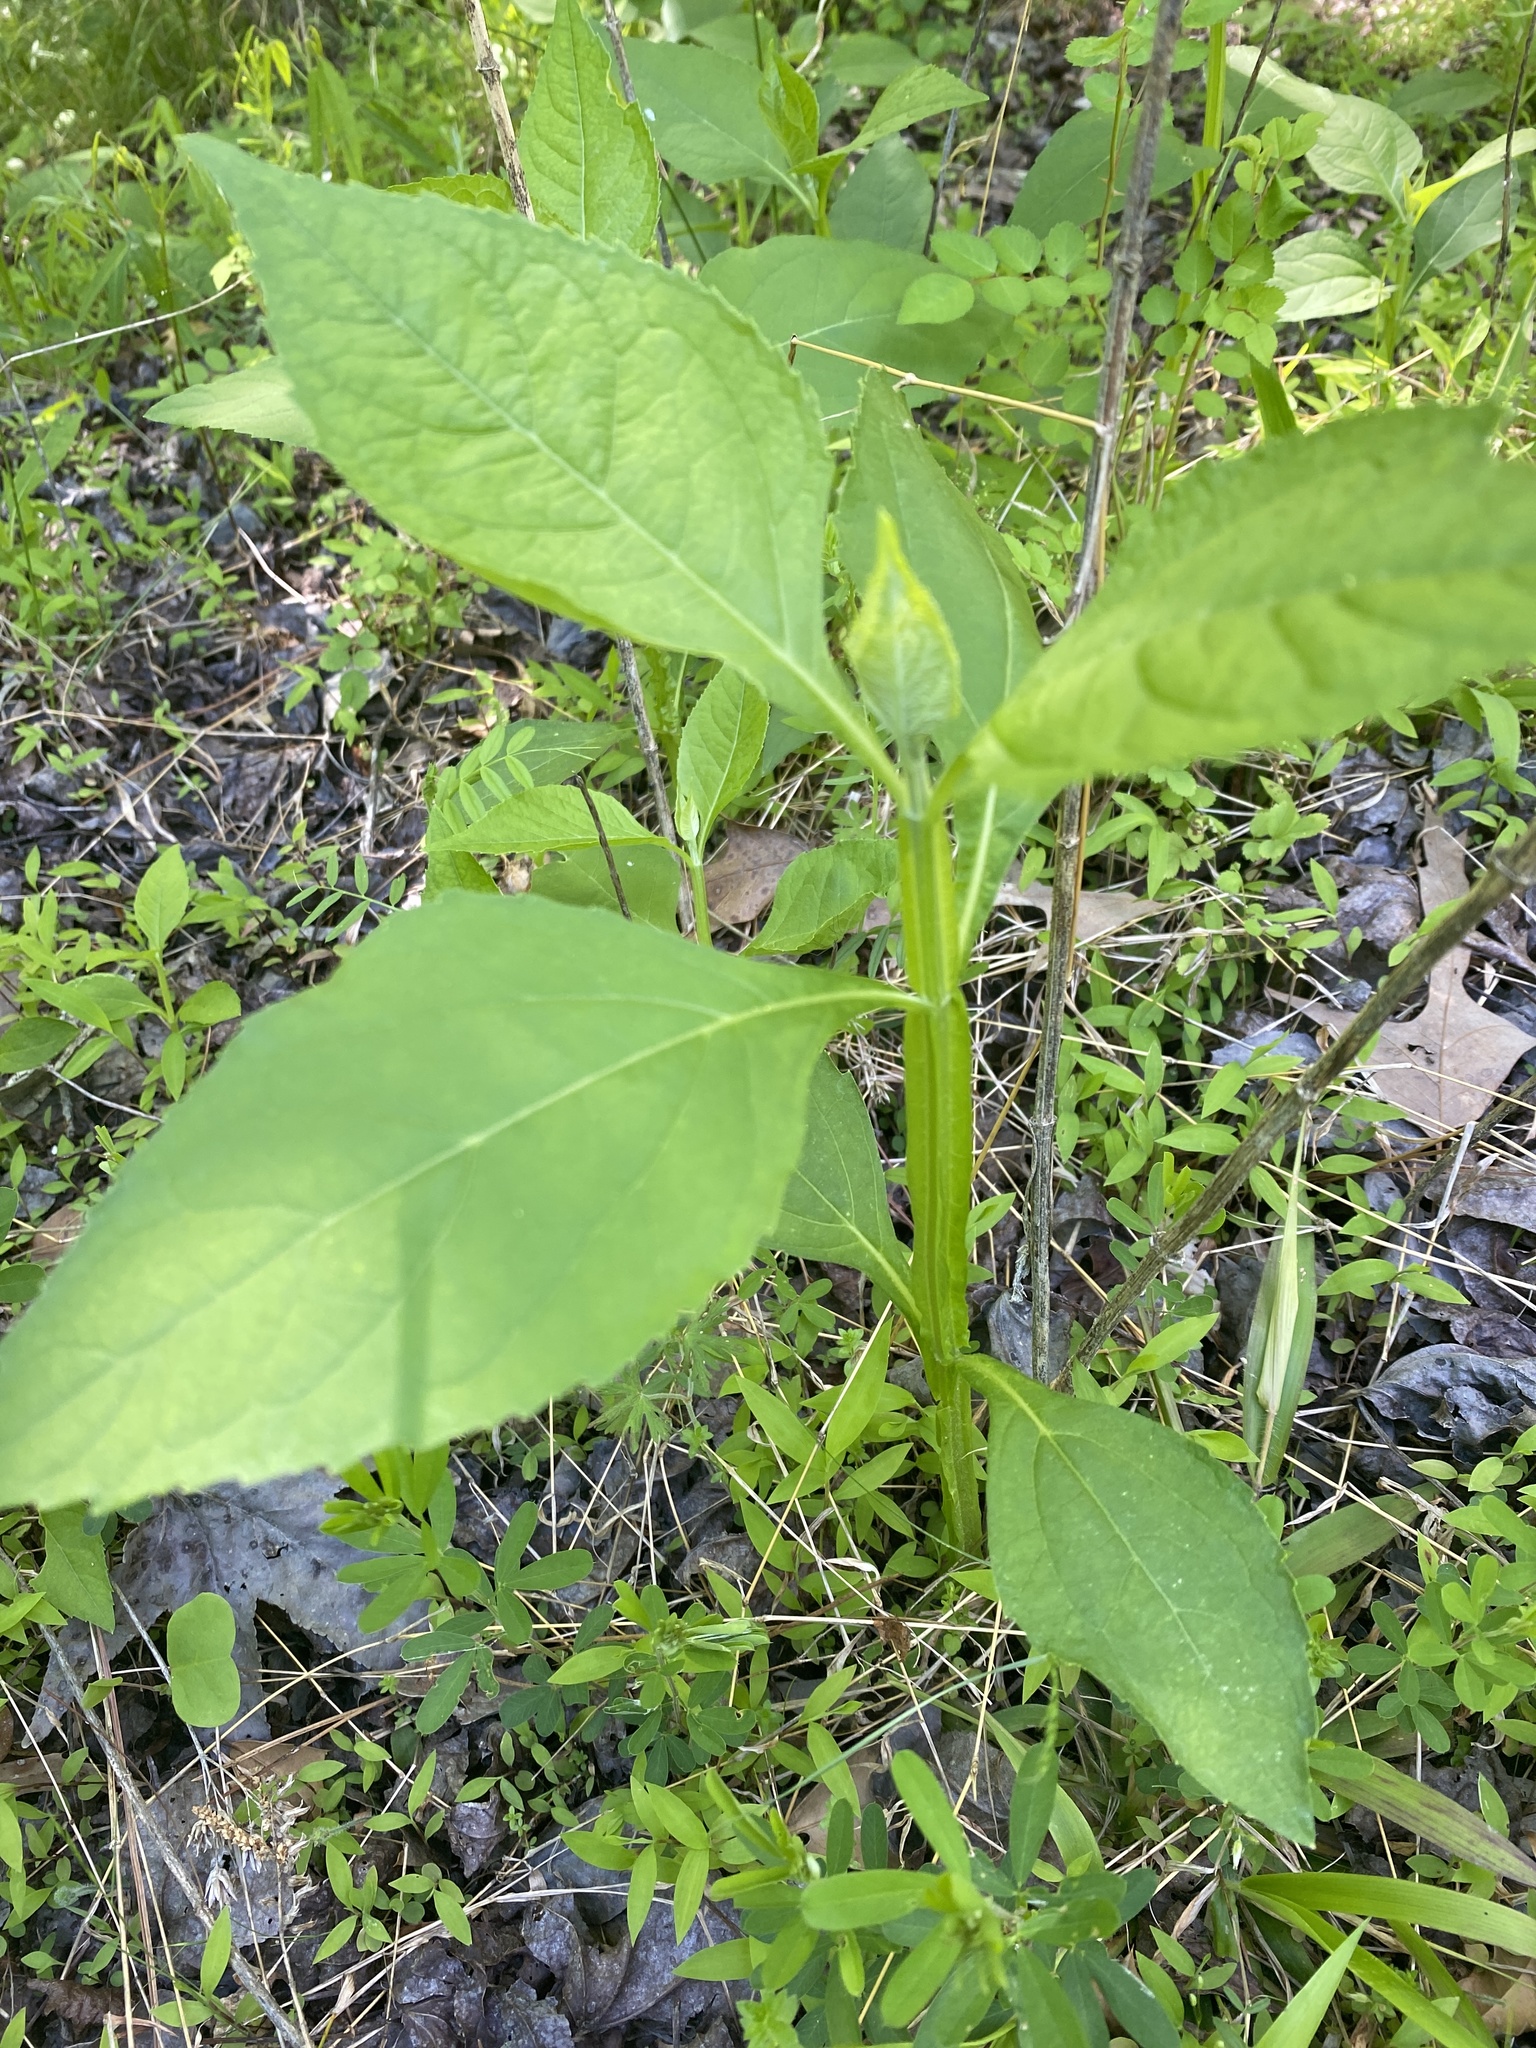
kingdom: Plantae
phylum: Tracheophyta
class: Magnoliopsida
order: Asterales
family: Asteraceae
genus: Verbesina
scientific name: Verbesina occidentalis
